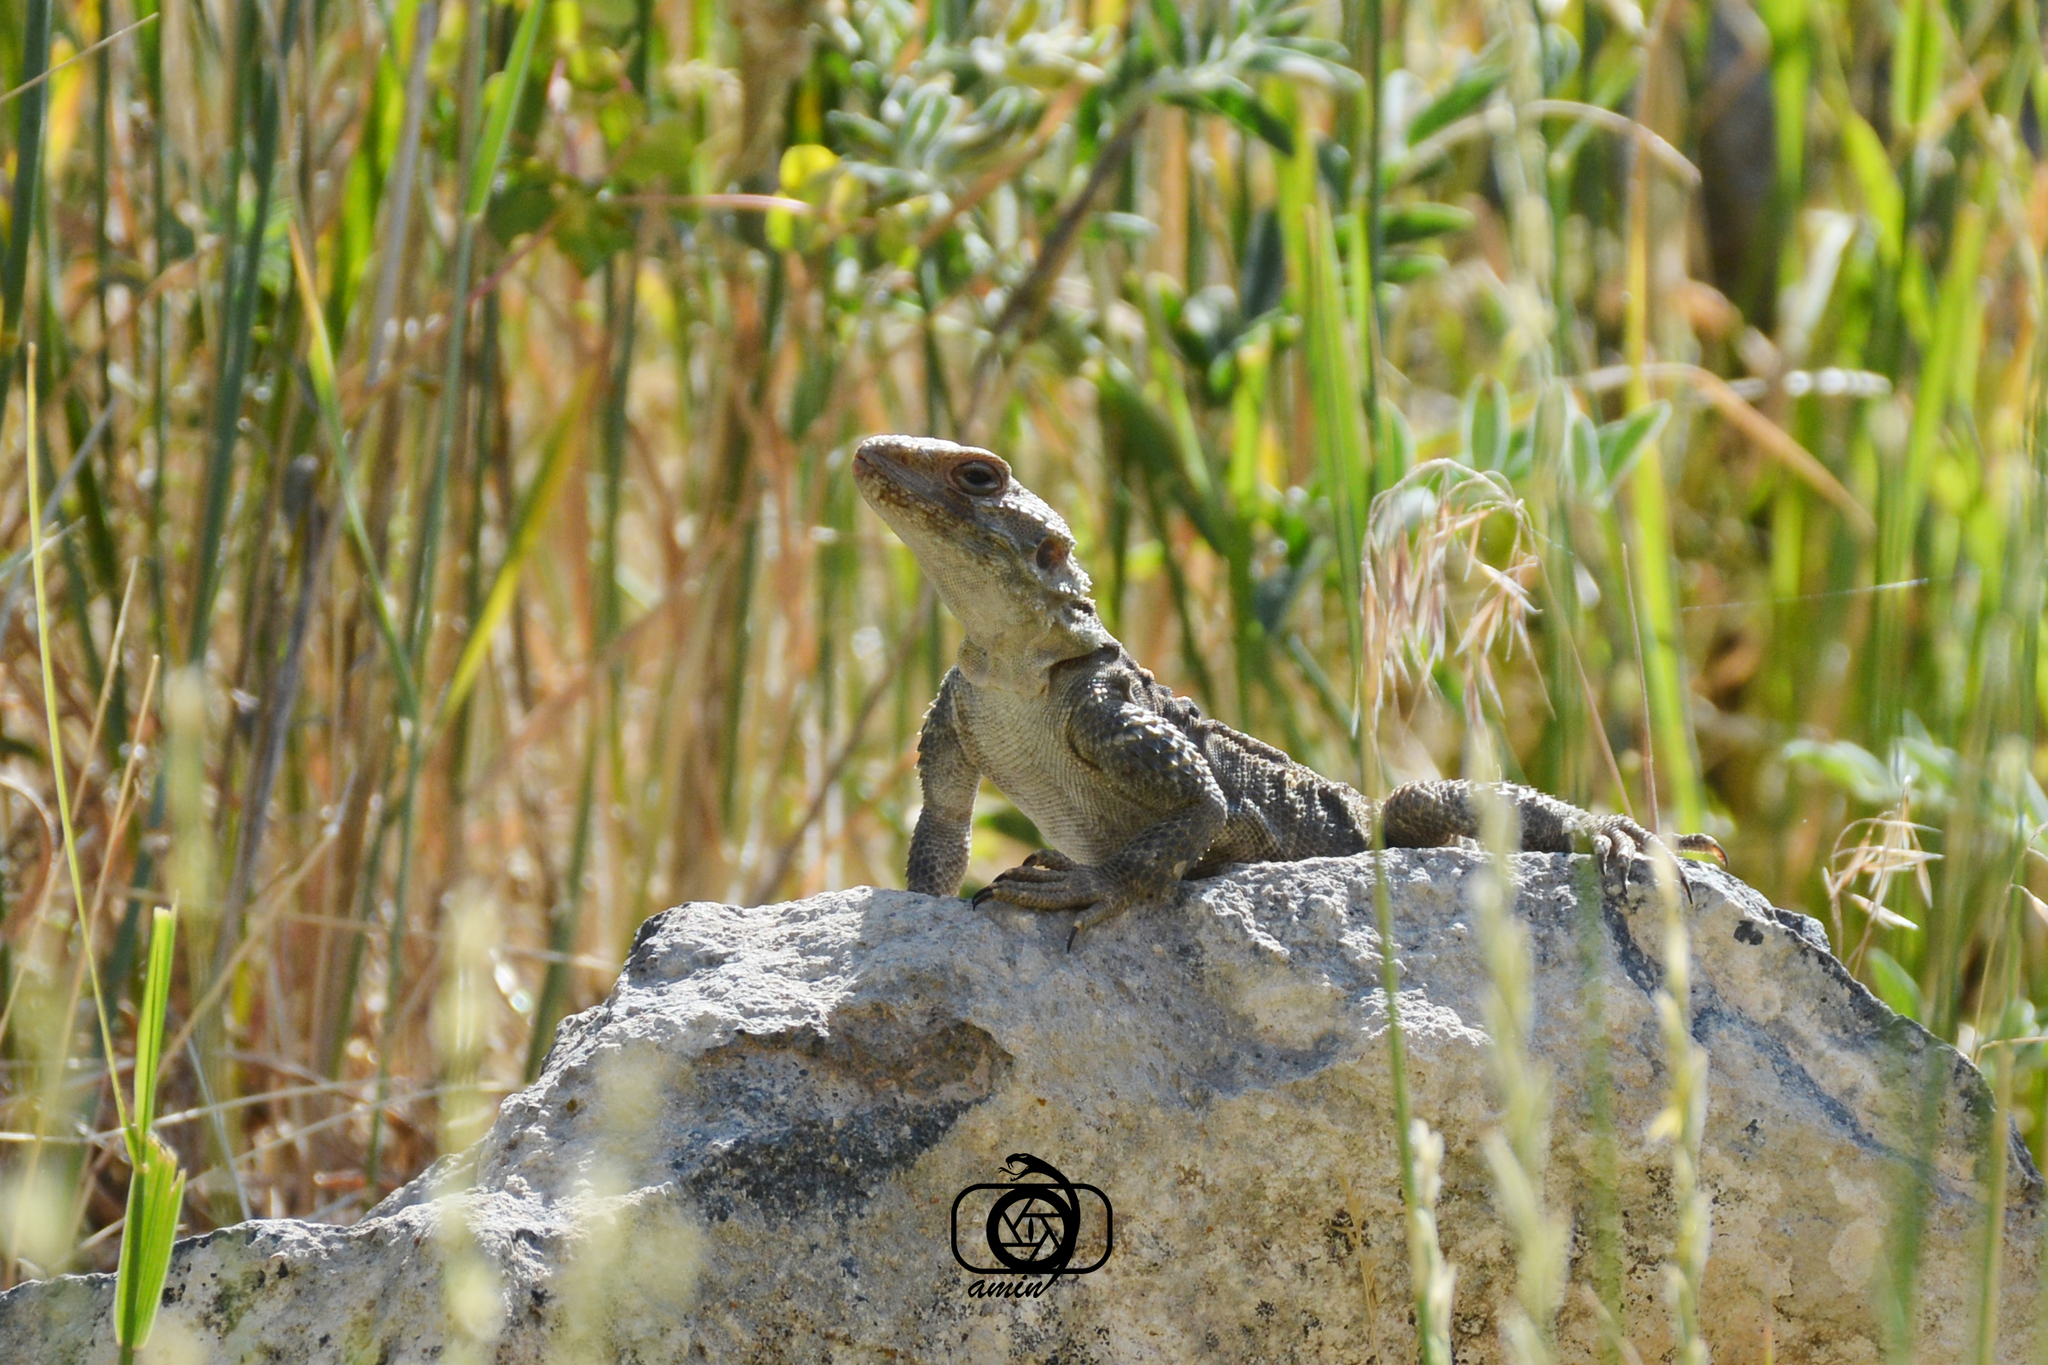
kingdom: Animalia
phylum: Chordata
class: Squamata
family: Agamidae
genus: Paralaudakia
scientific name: Paralaudakia caucasia
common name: Caucasian agama
